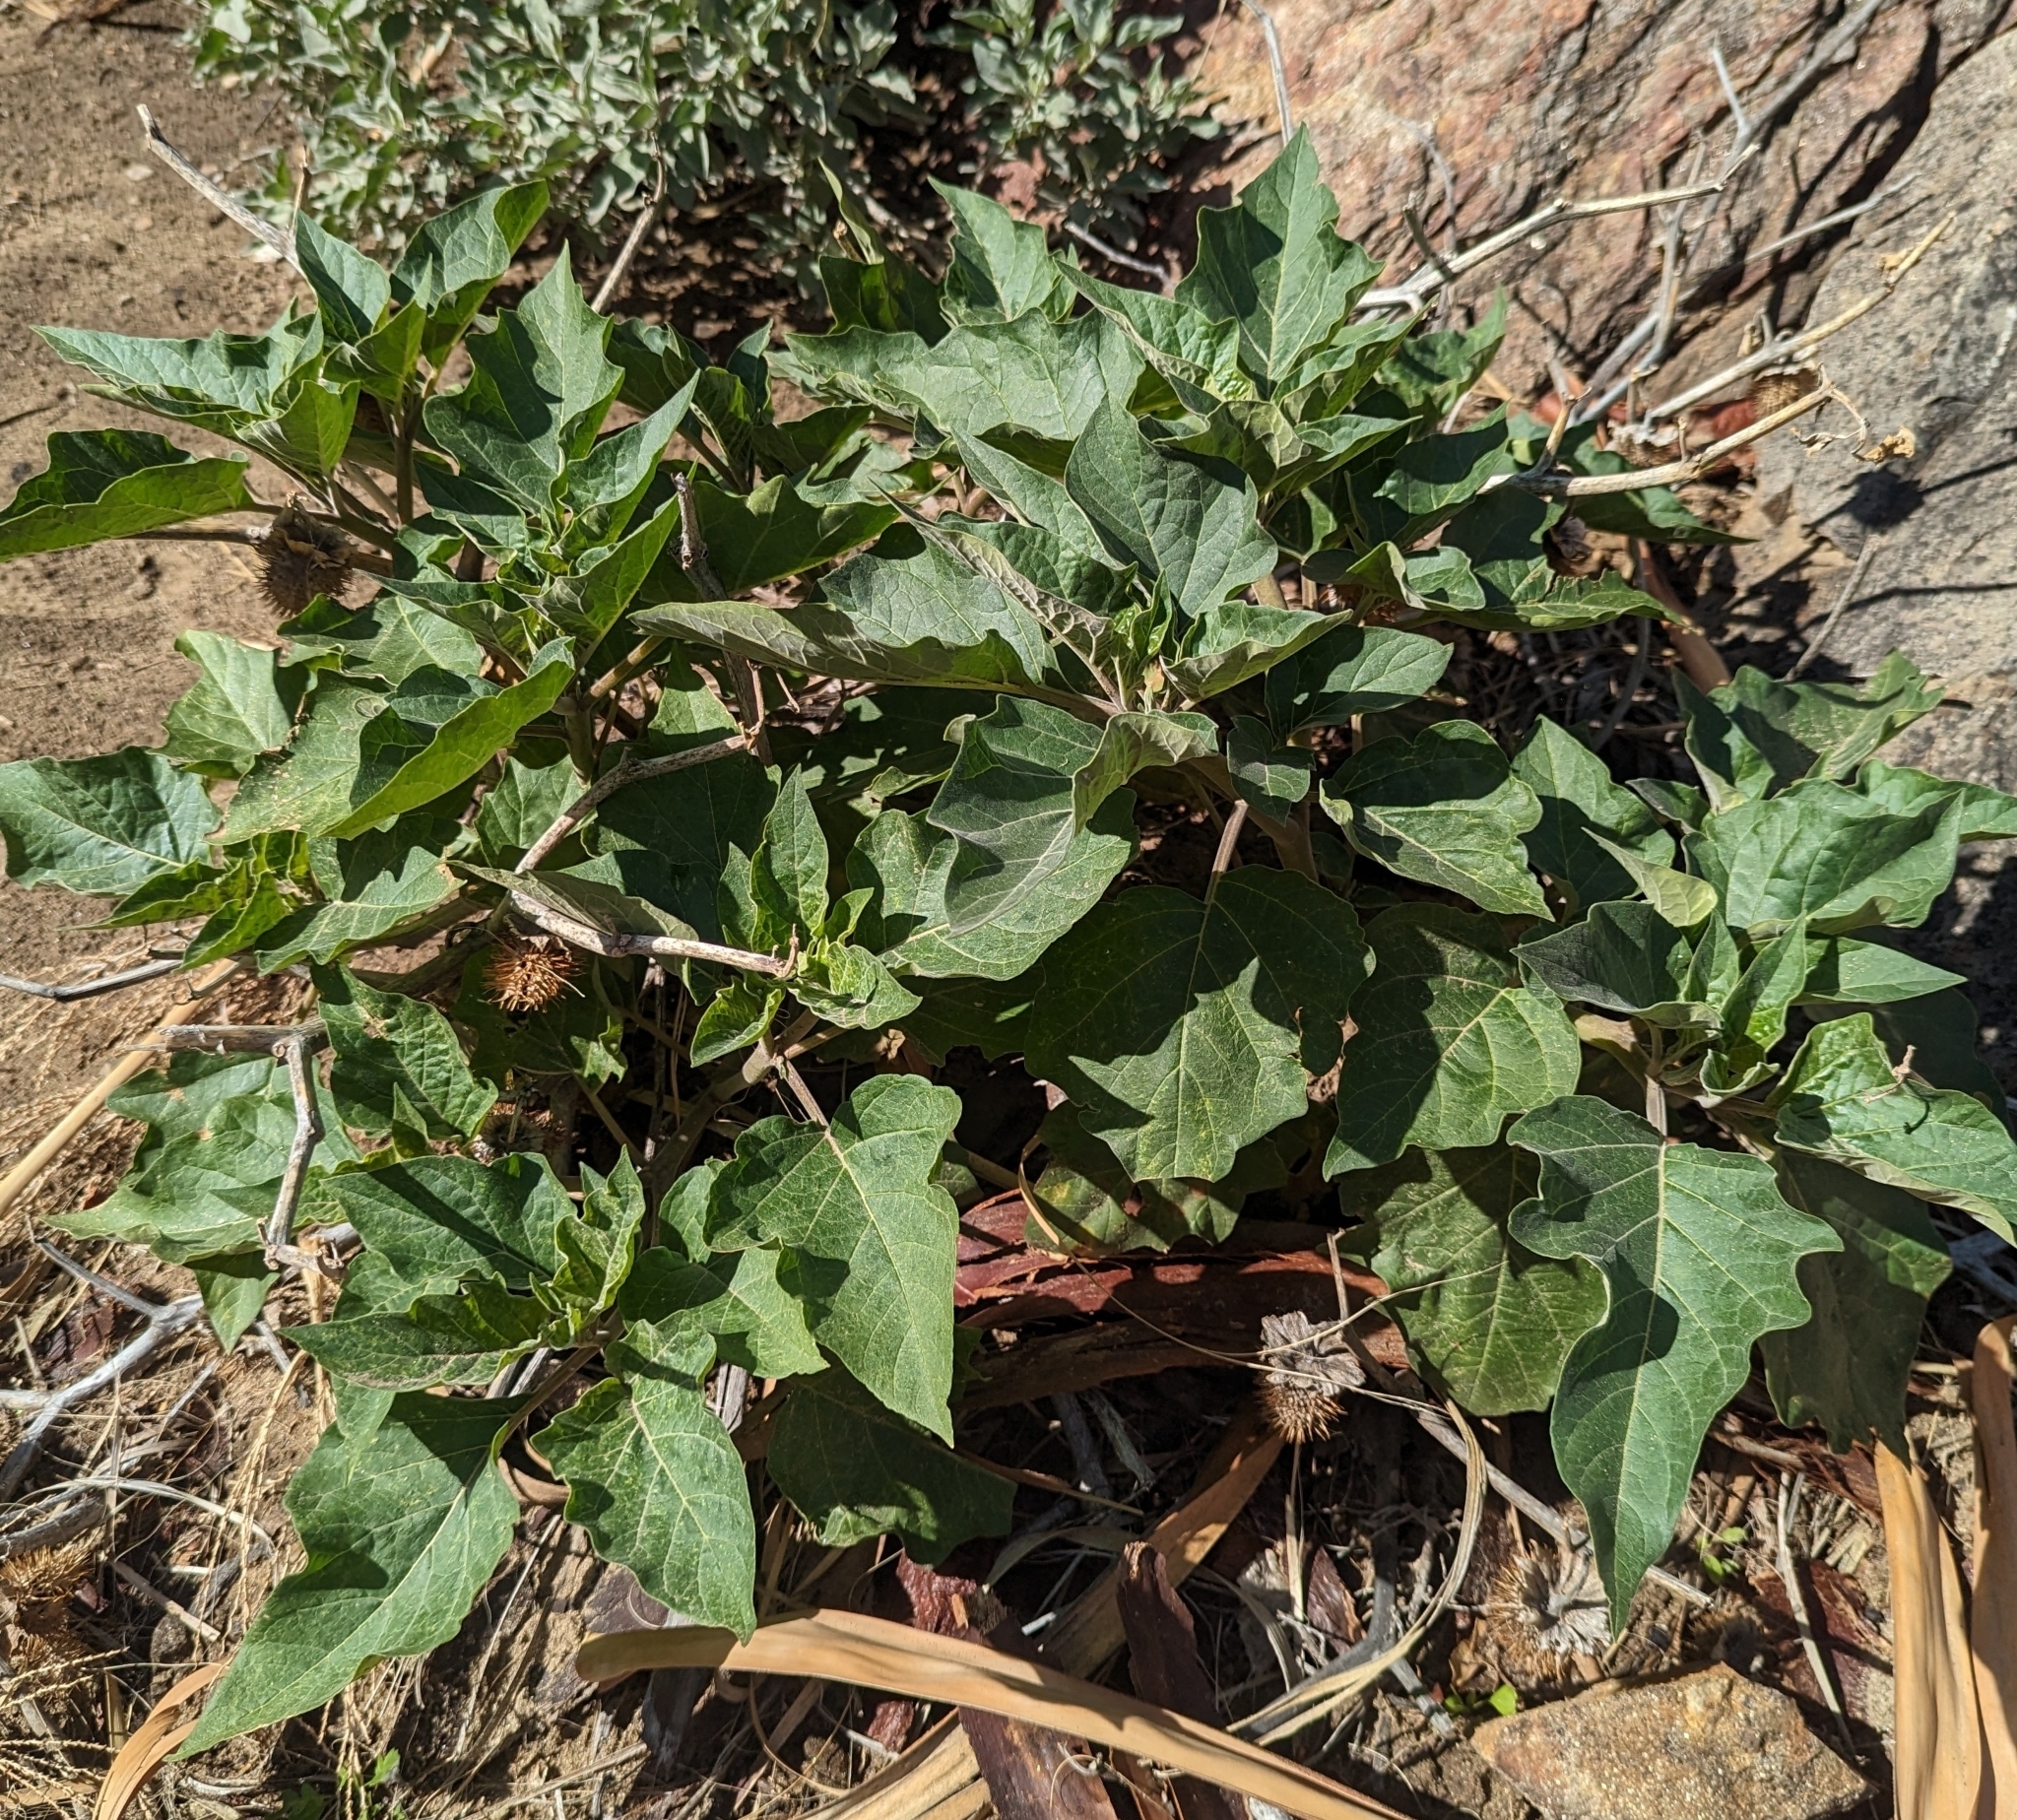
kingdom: Plantae
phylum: Tracheophyta
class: Magnoliopsida
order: Solanales
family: Solanaceae
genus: Datura
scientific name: Datura wrightii
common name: Sacred thorn-apple
